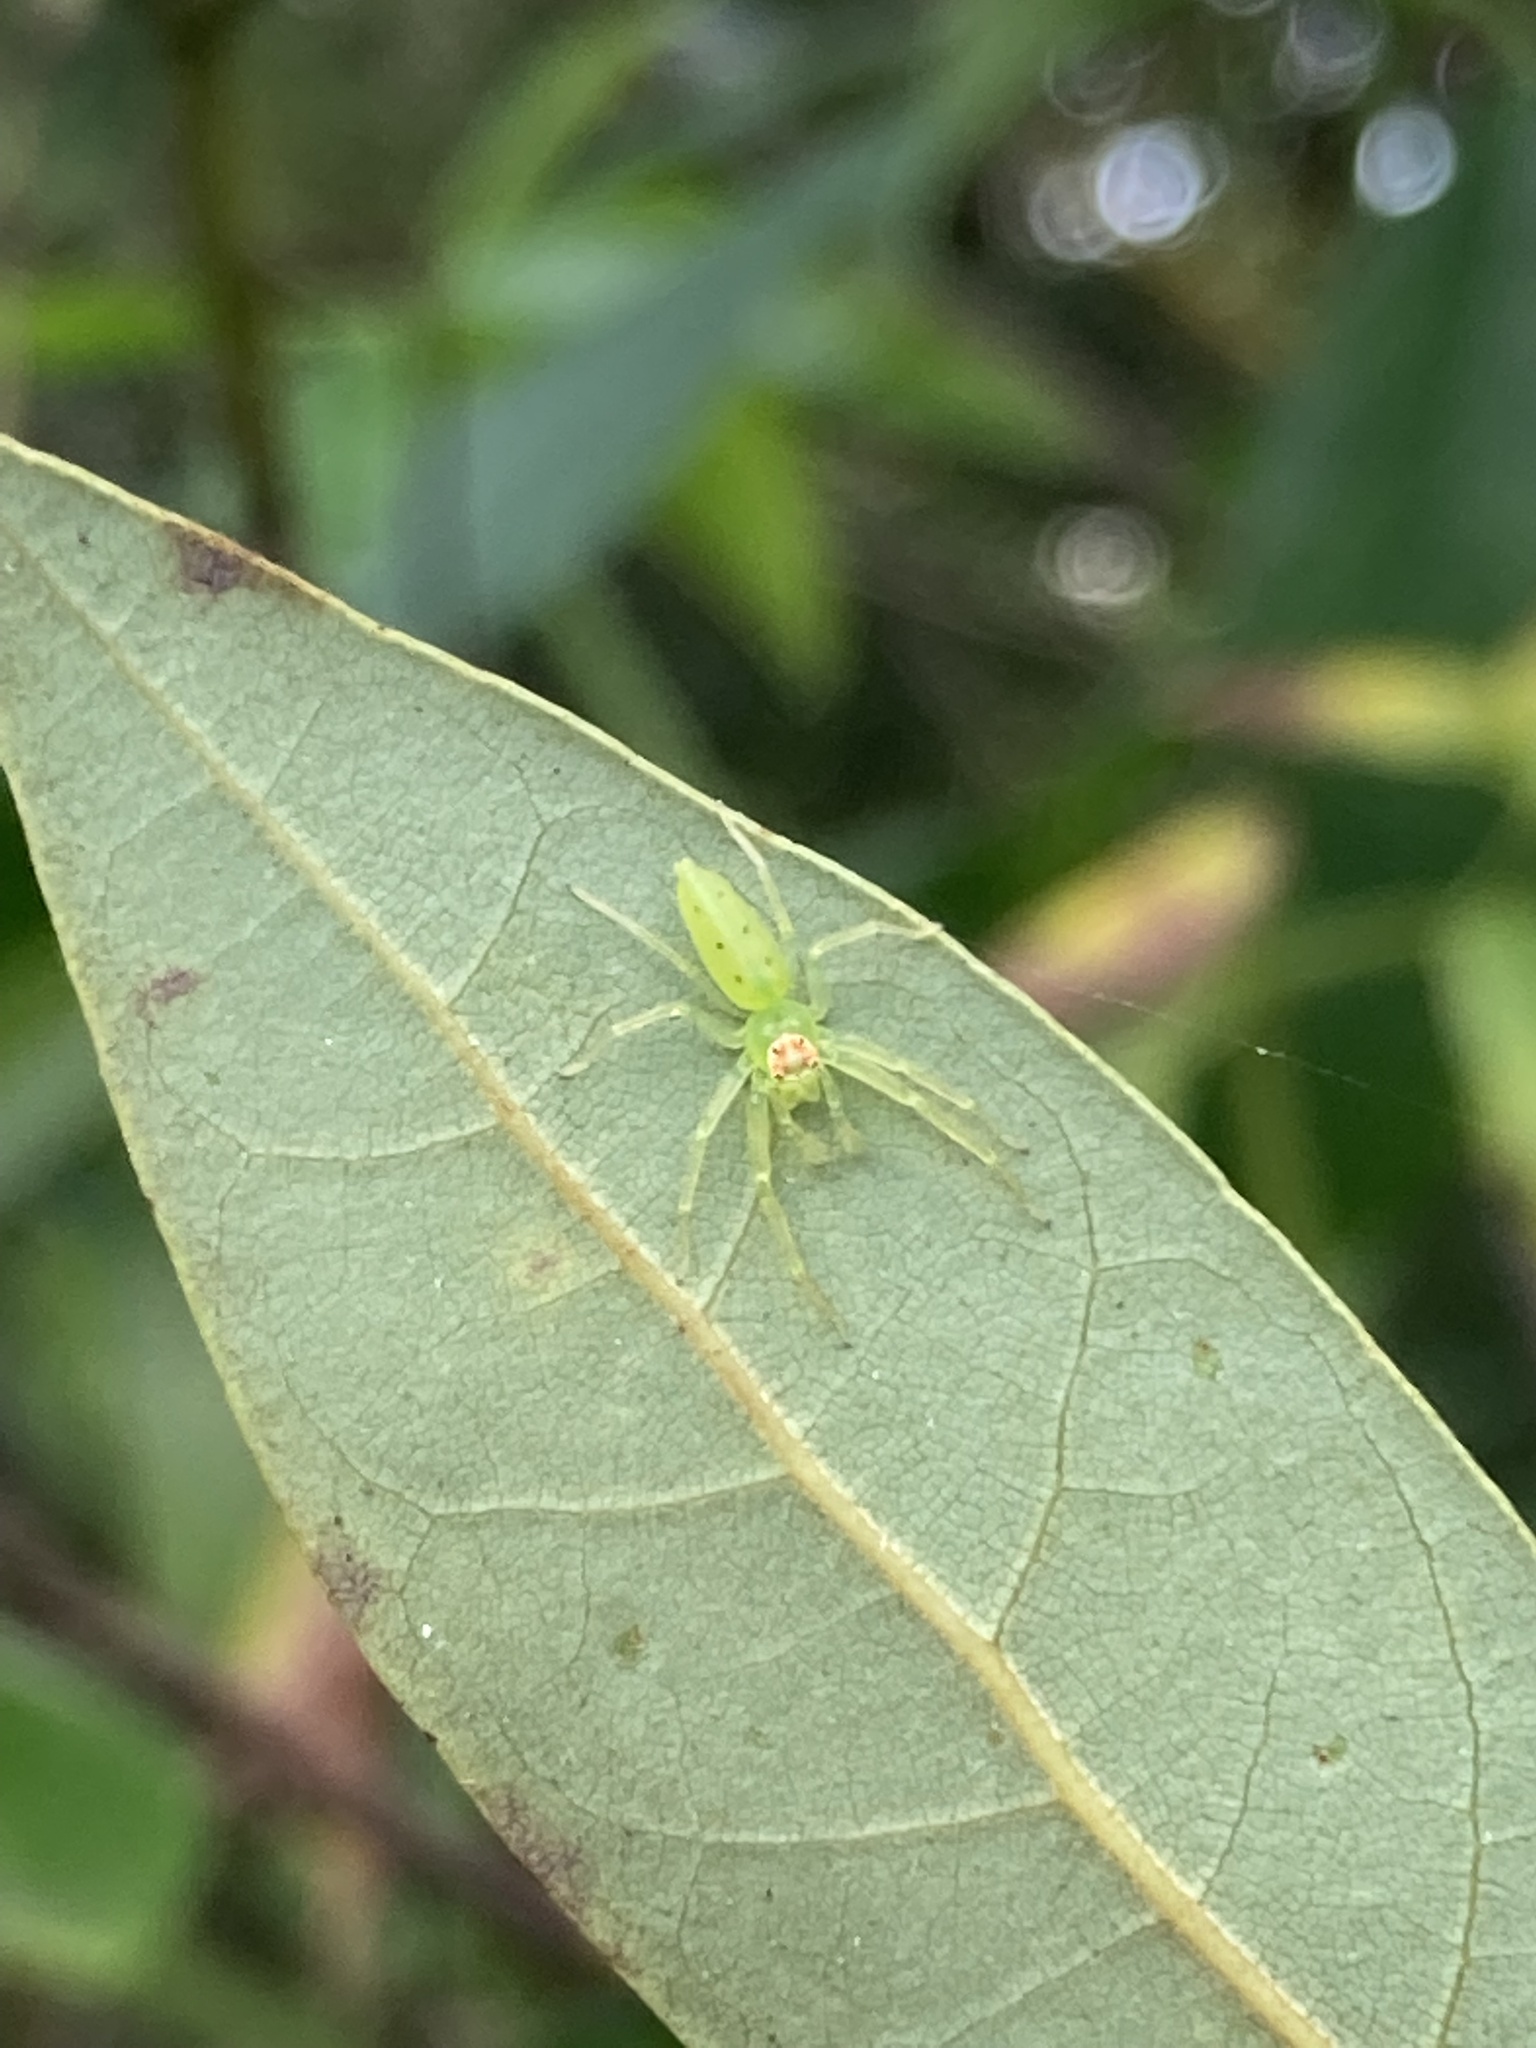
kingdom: Animalia
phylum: Arthropoda
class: Arachnida
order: Araneae
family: Salticidae
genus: Lyssomanes
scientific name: Lyssomanes viridis
